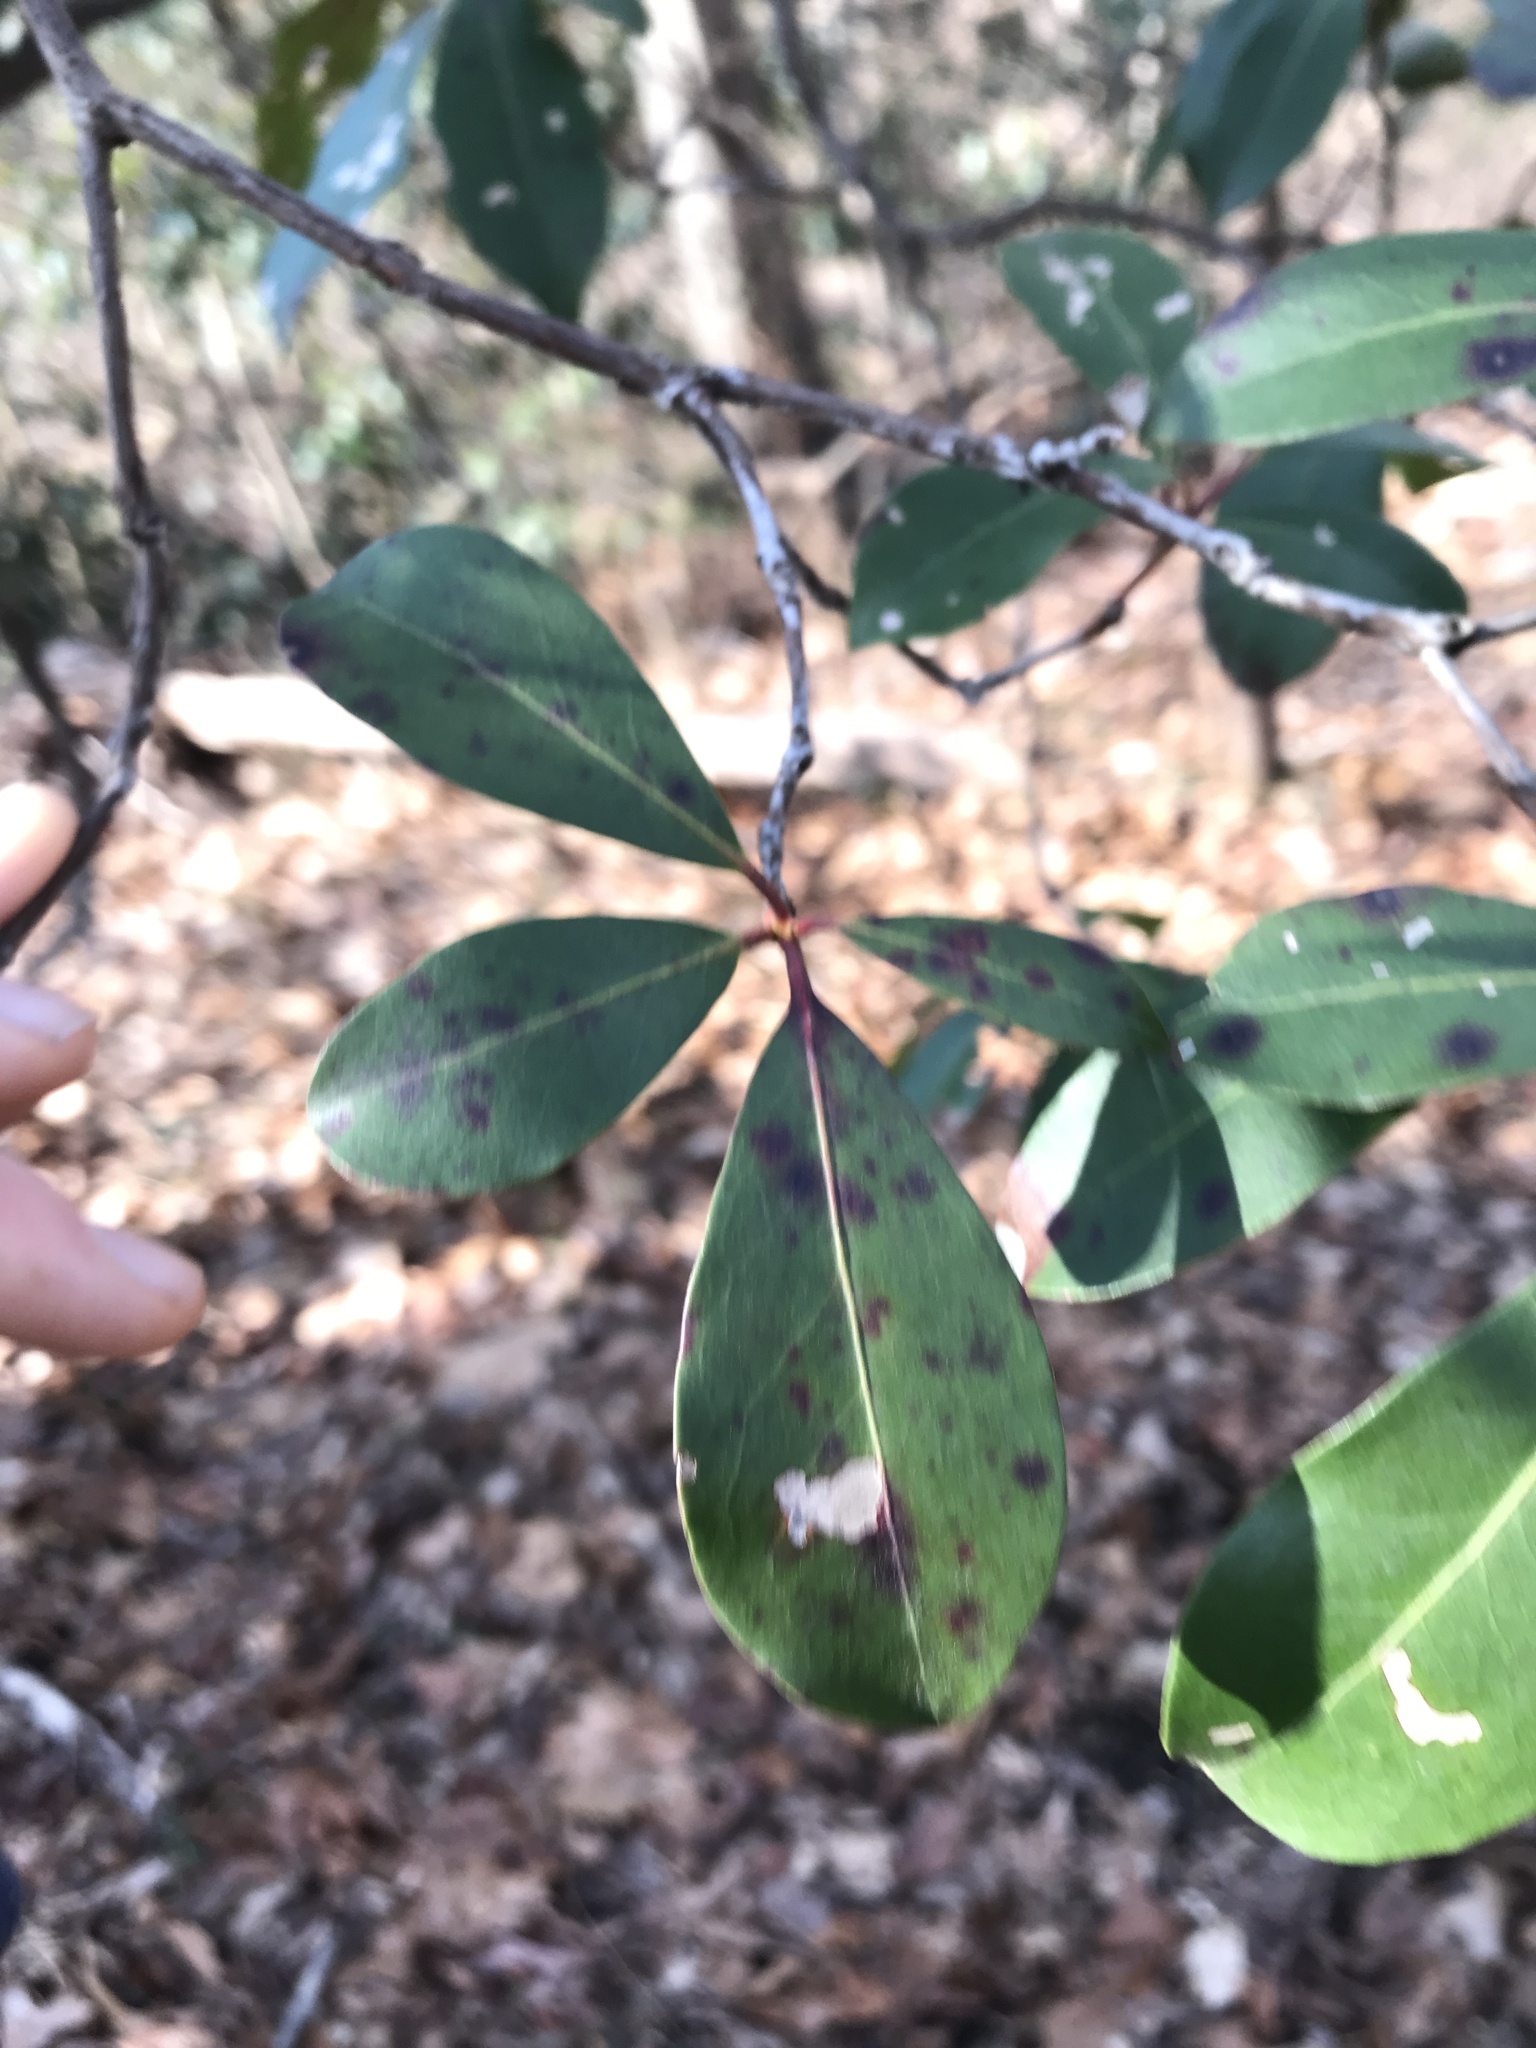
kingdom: Fungi
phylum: Ascomycota
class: Sordariomycetes
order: Diaporthales
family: Diaporthaceae
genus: Diaporthe
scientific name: Diaporthe kalmiae
